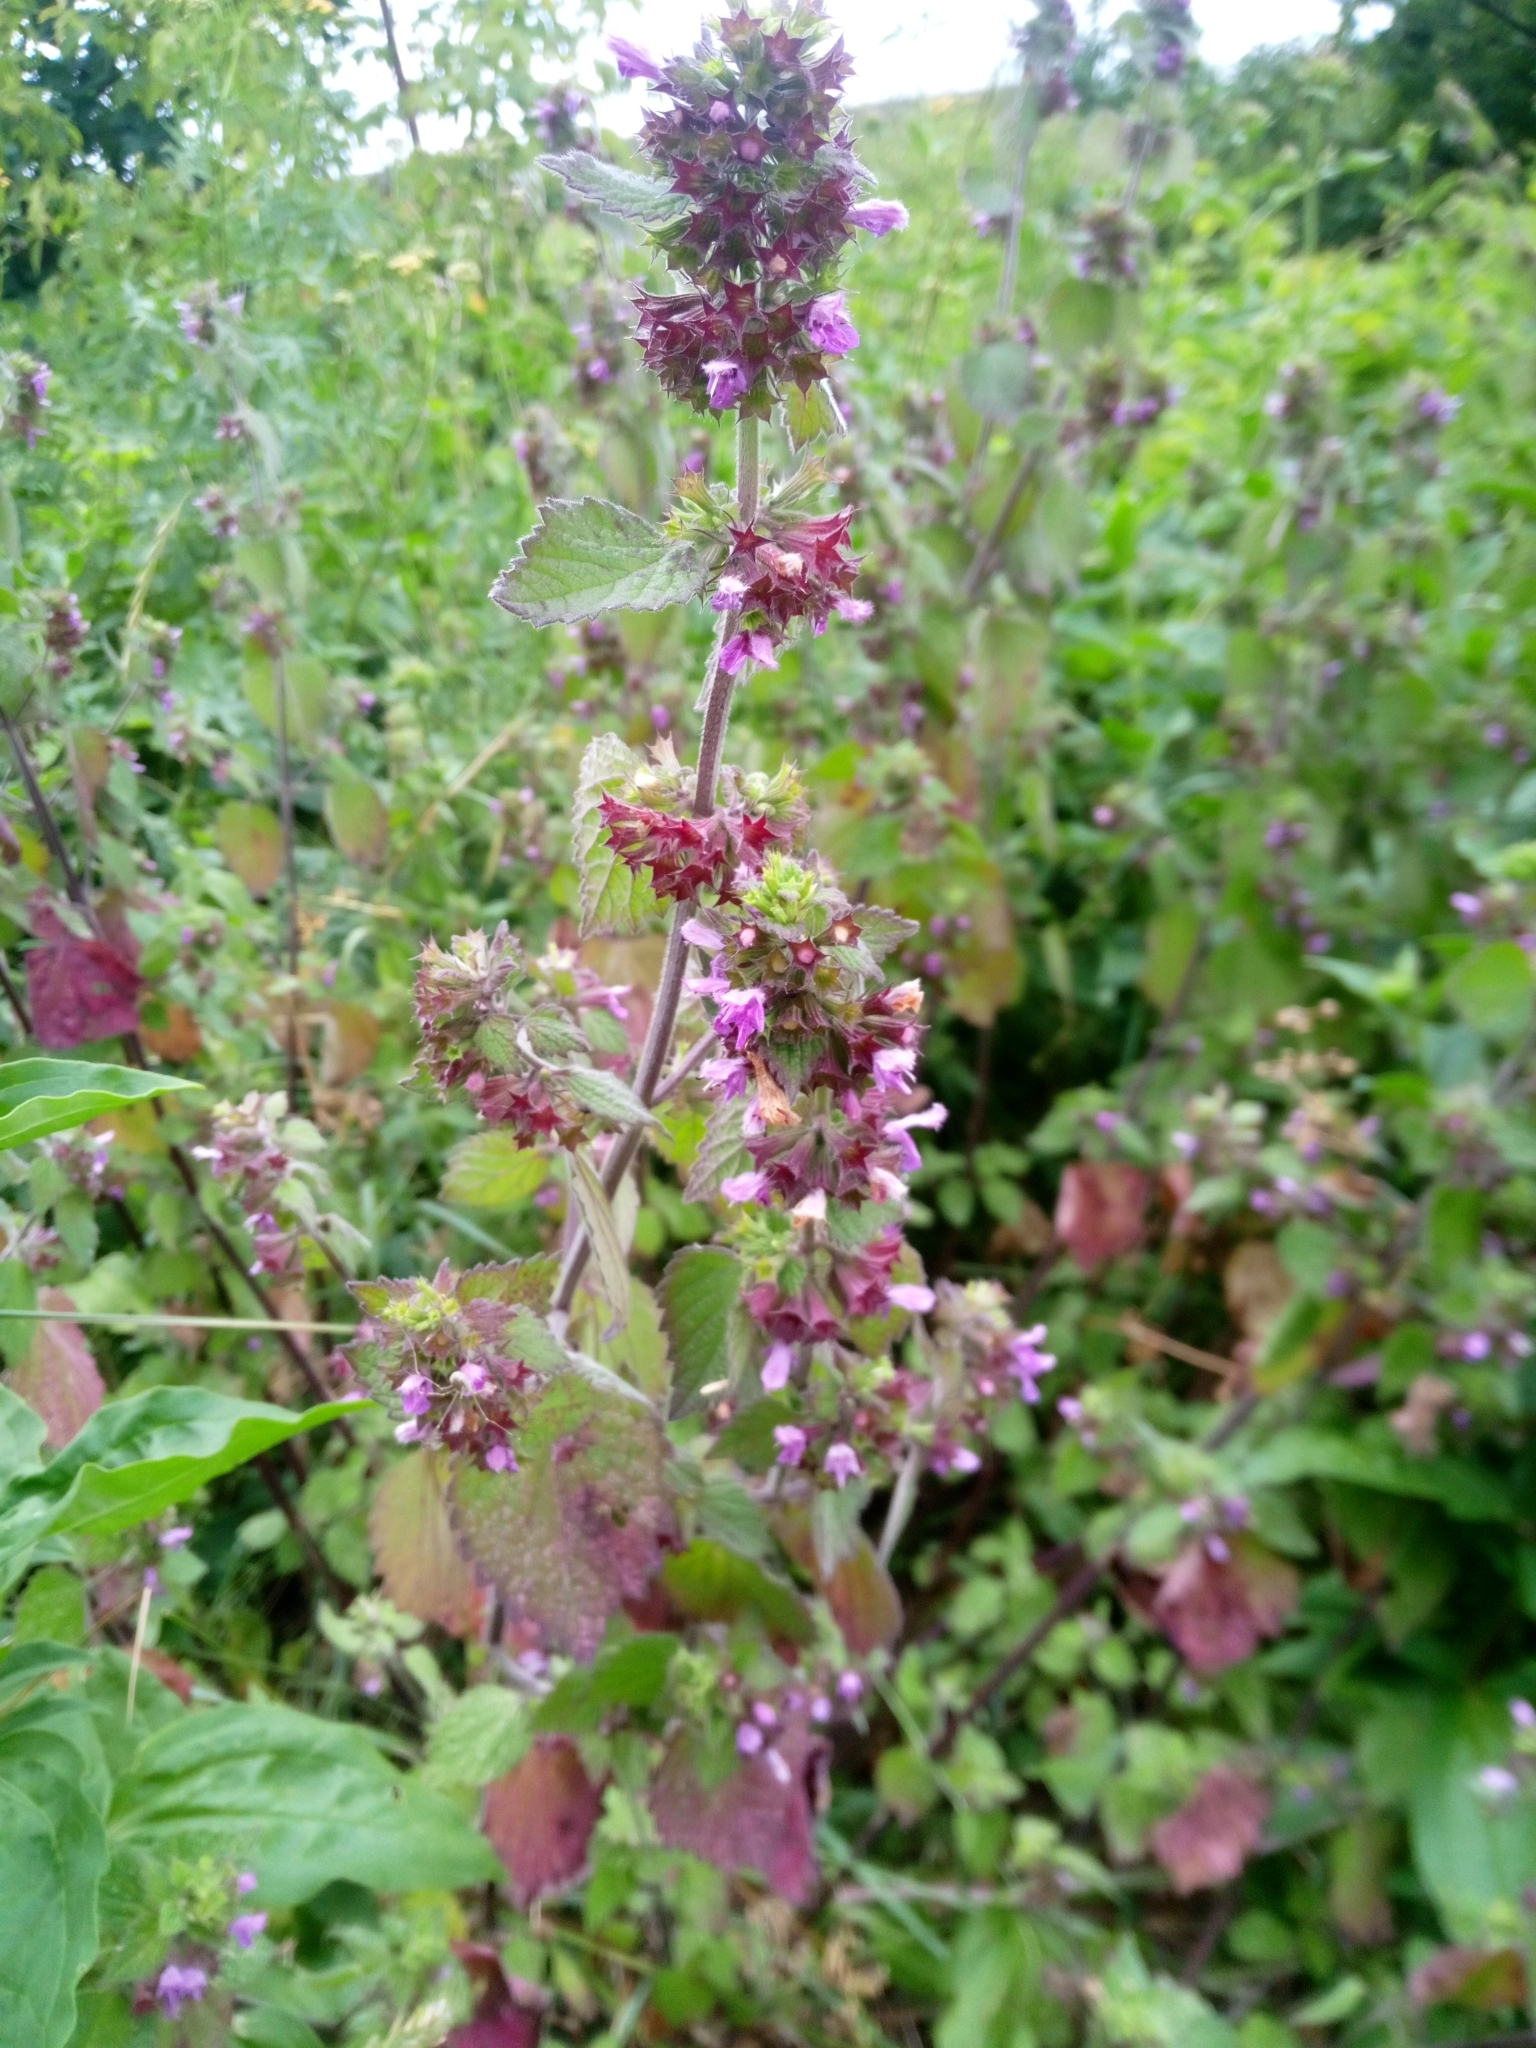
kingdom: Plantae
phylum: Tracheophyta
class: Magnoliopsida
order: Lamiales
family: Lamiaceae
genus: Ballota
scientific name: Ballota nigra
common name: Black horehound
